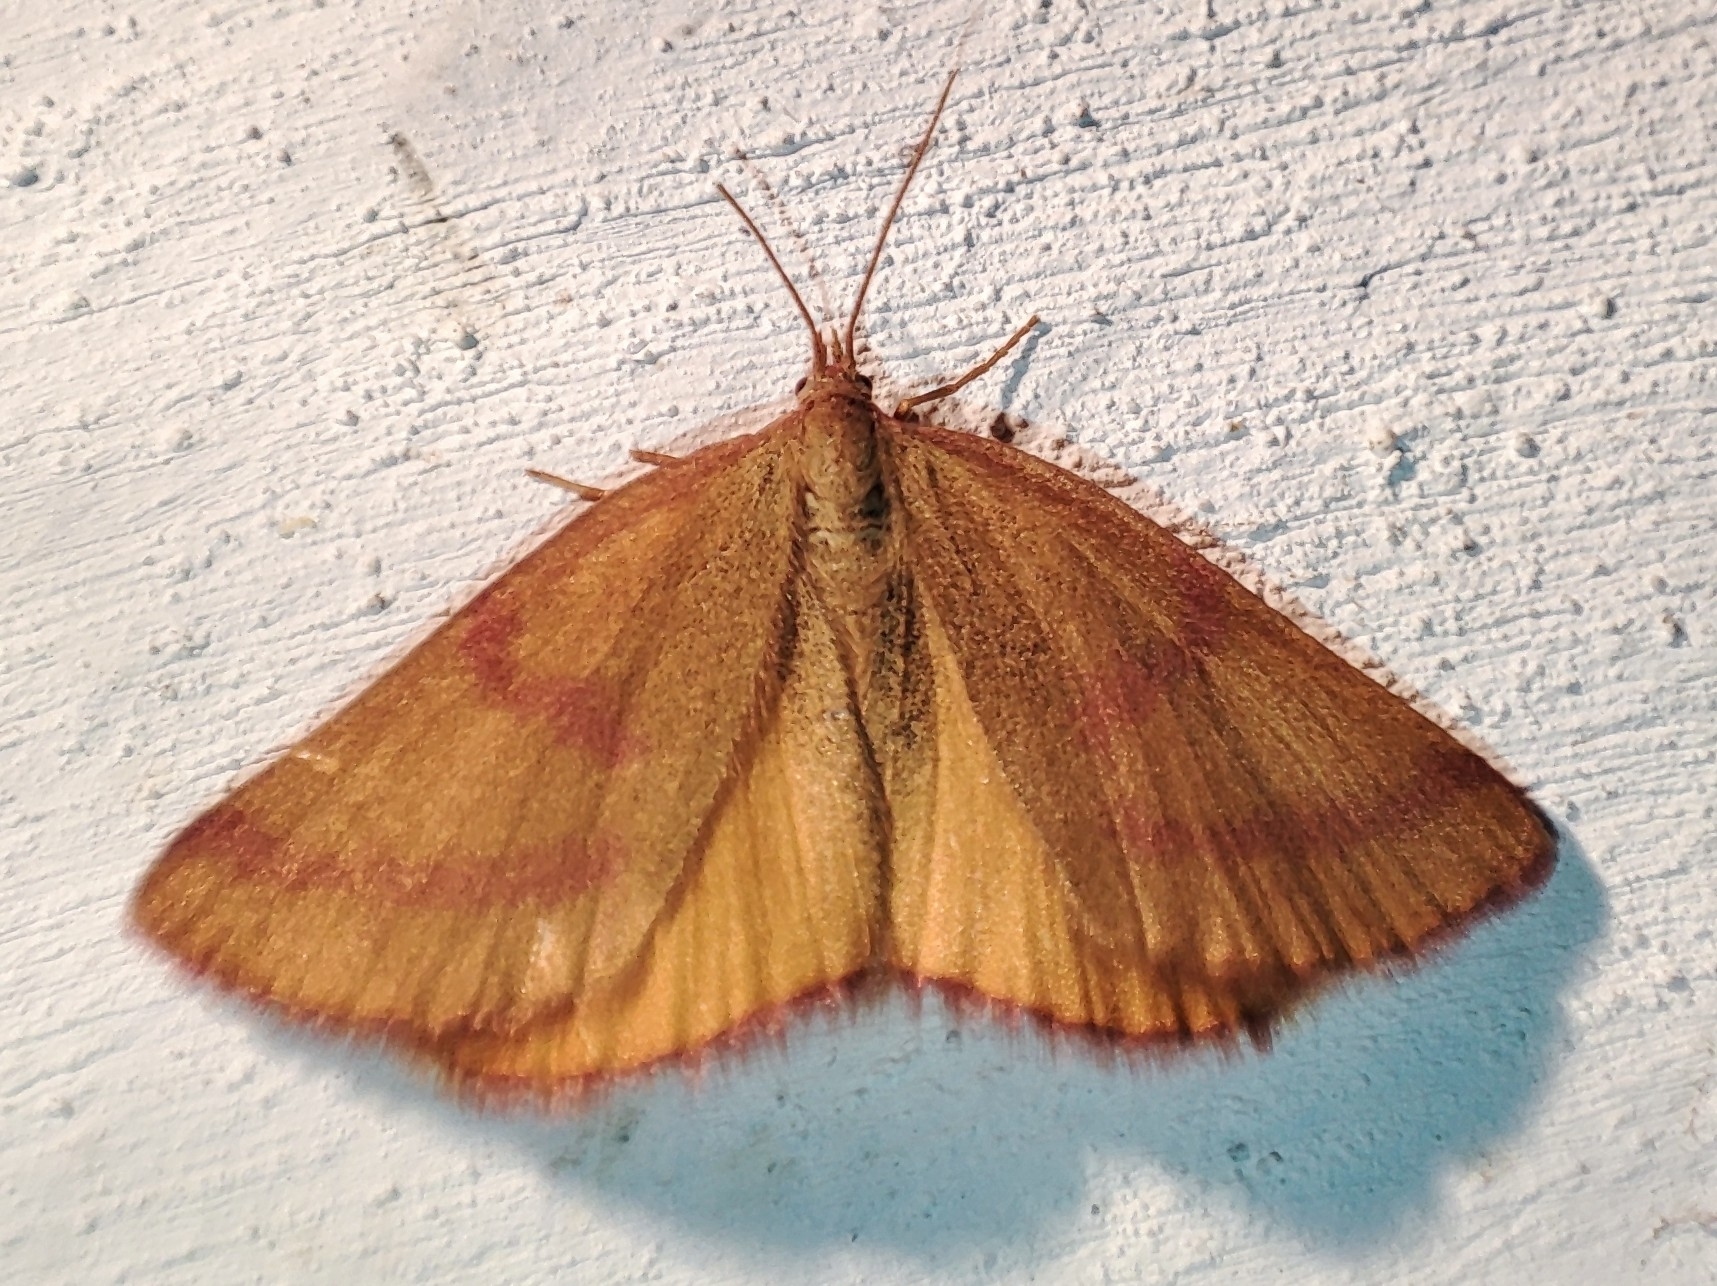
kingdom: Animalia
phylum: Arthropoda
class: Insecta
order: Lepidoptera
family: Geometridae
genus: Lythria
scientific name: Lythria purpuraria
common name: Purple-barred yellow
